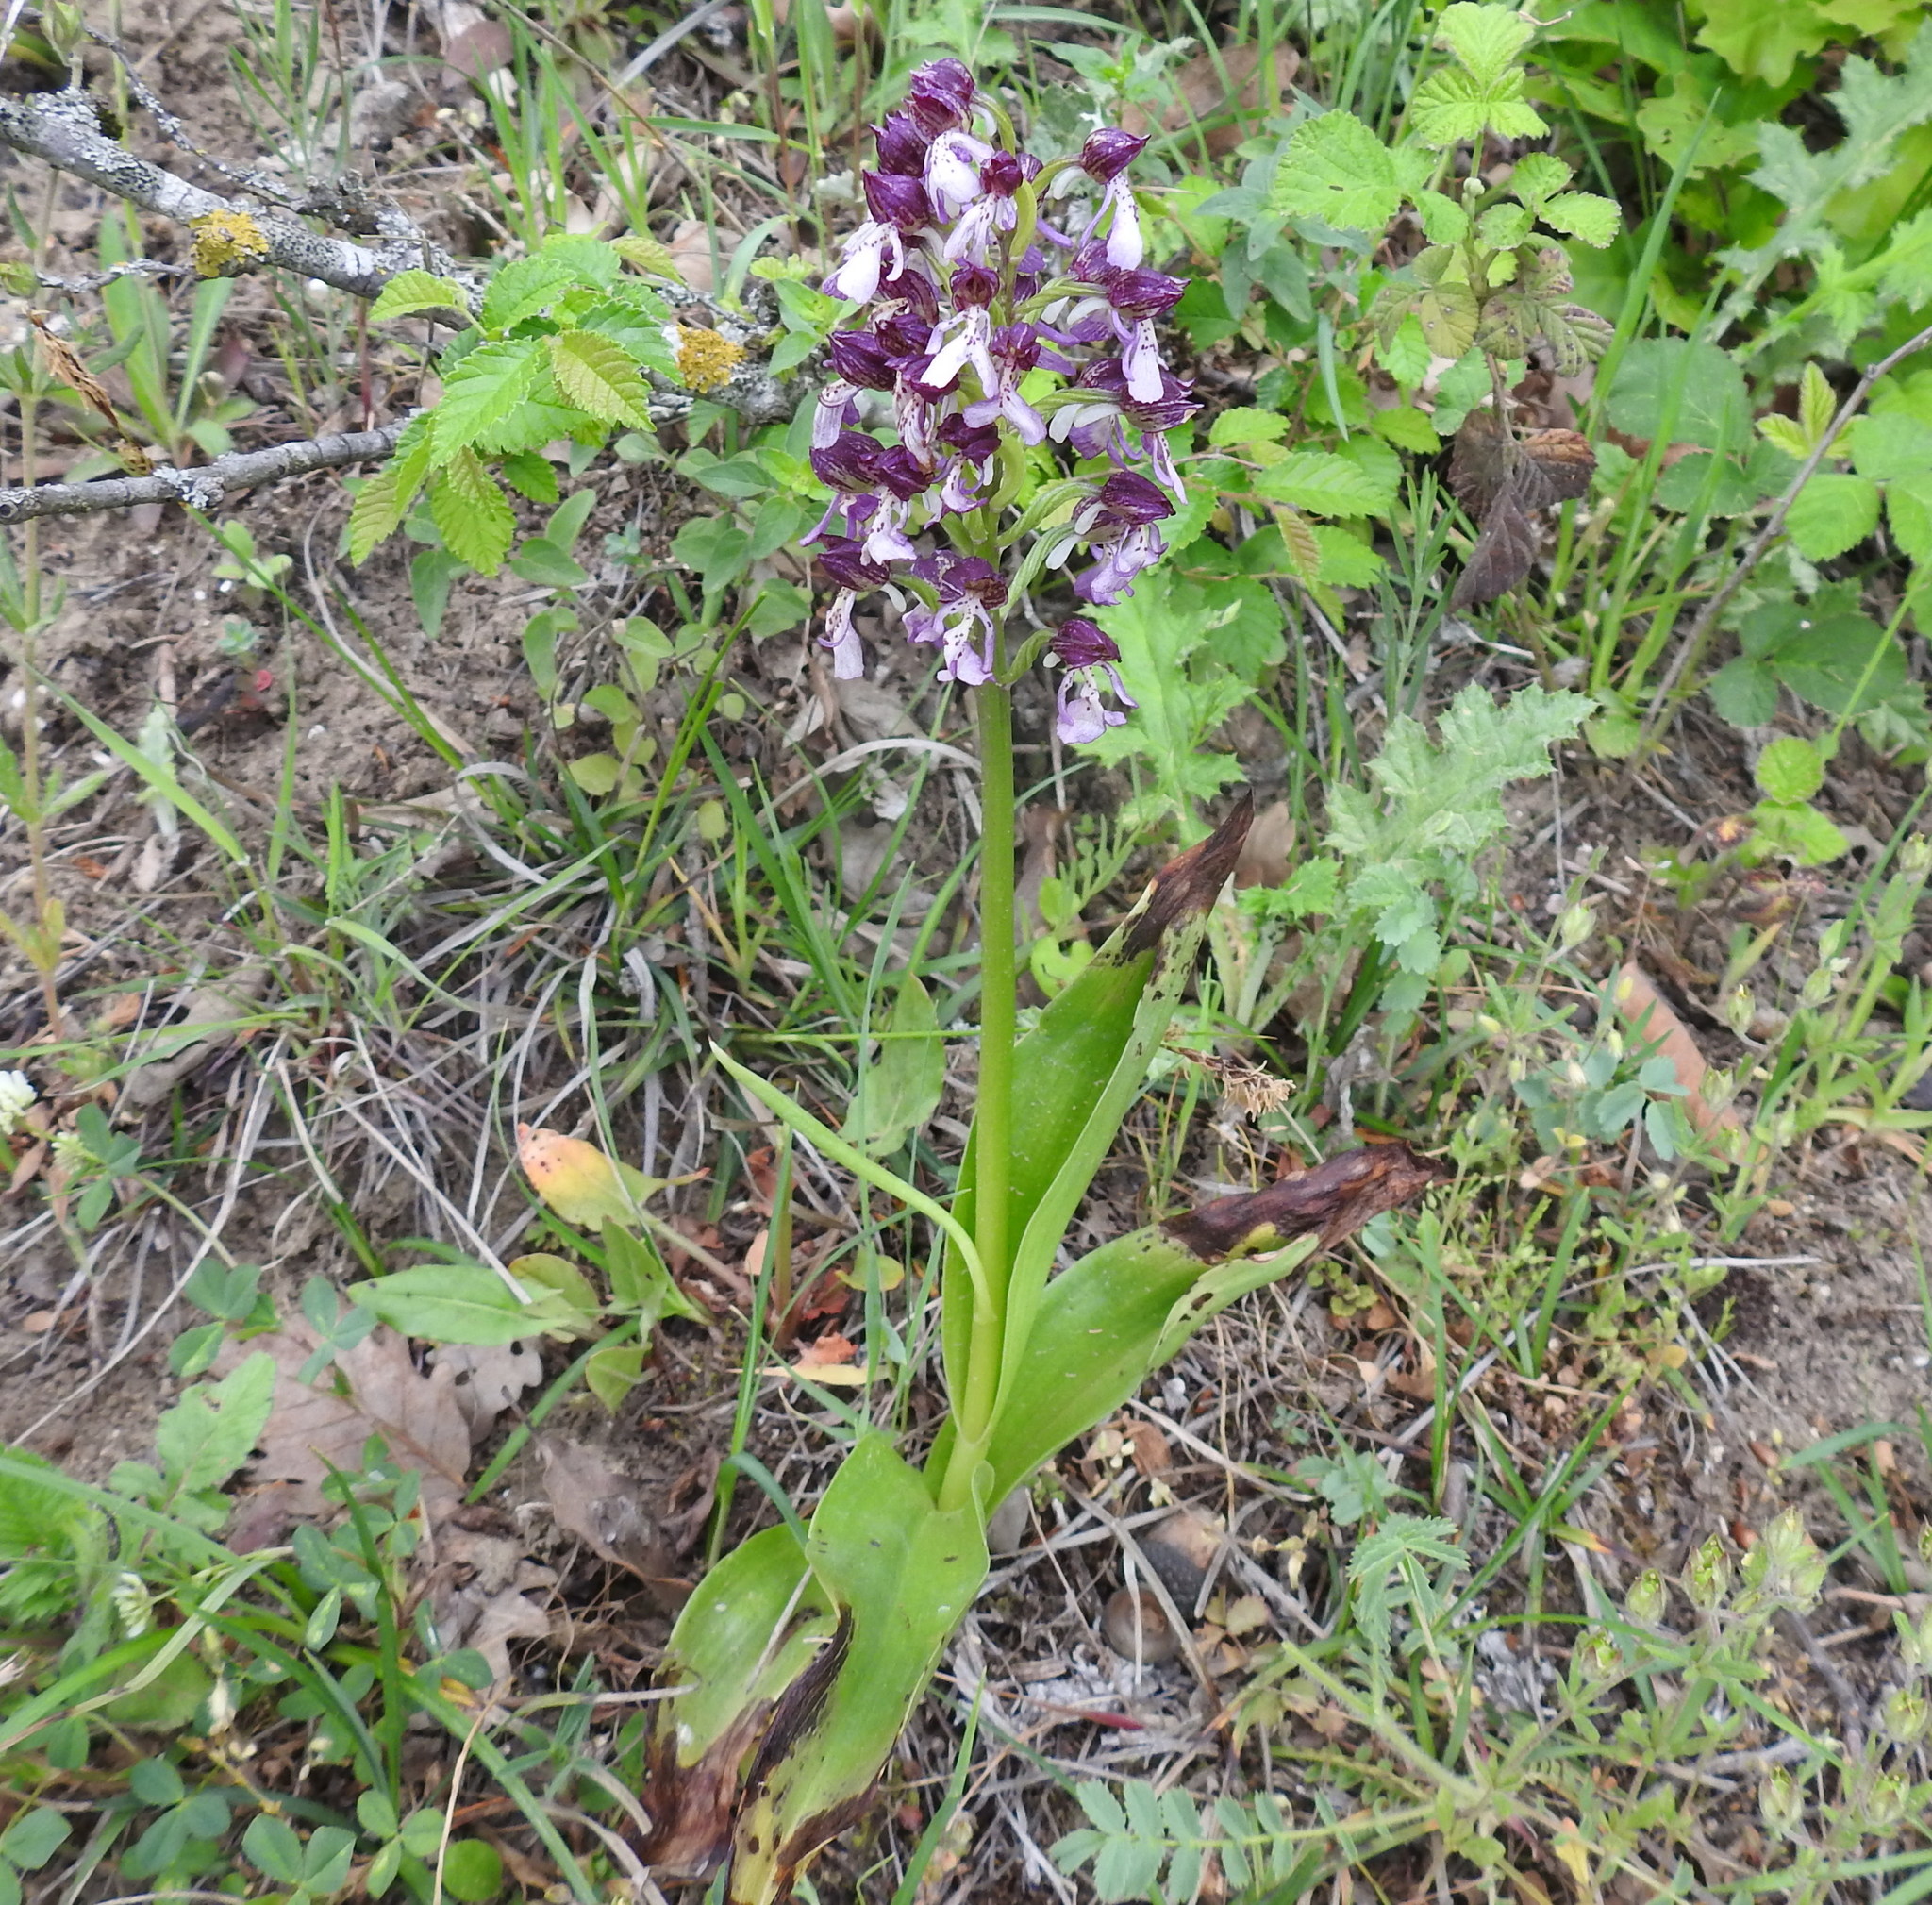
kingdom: Plantae
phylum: Tracheophyta
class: Liliopsida
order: Asparagales
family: Orchidaceae
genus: Orchis
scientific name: Orchis purpurea
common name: Lady orchid
